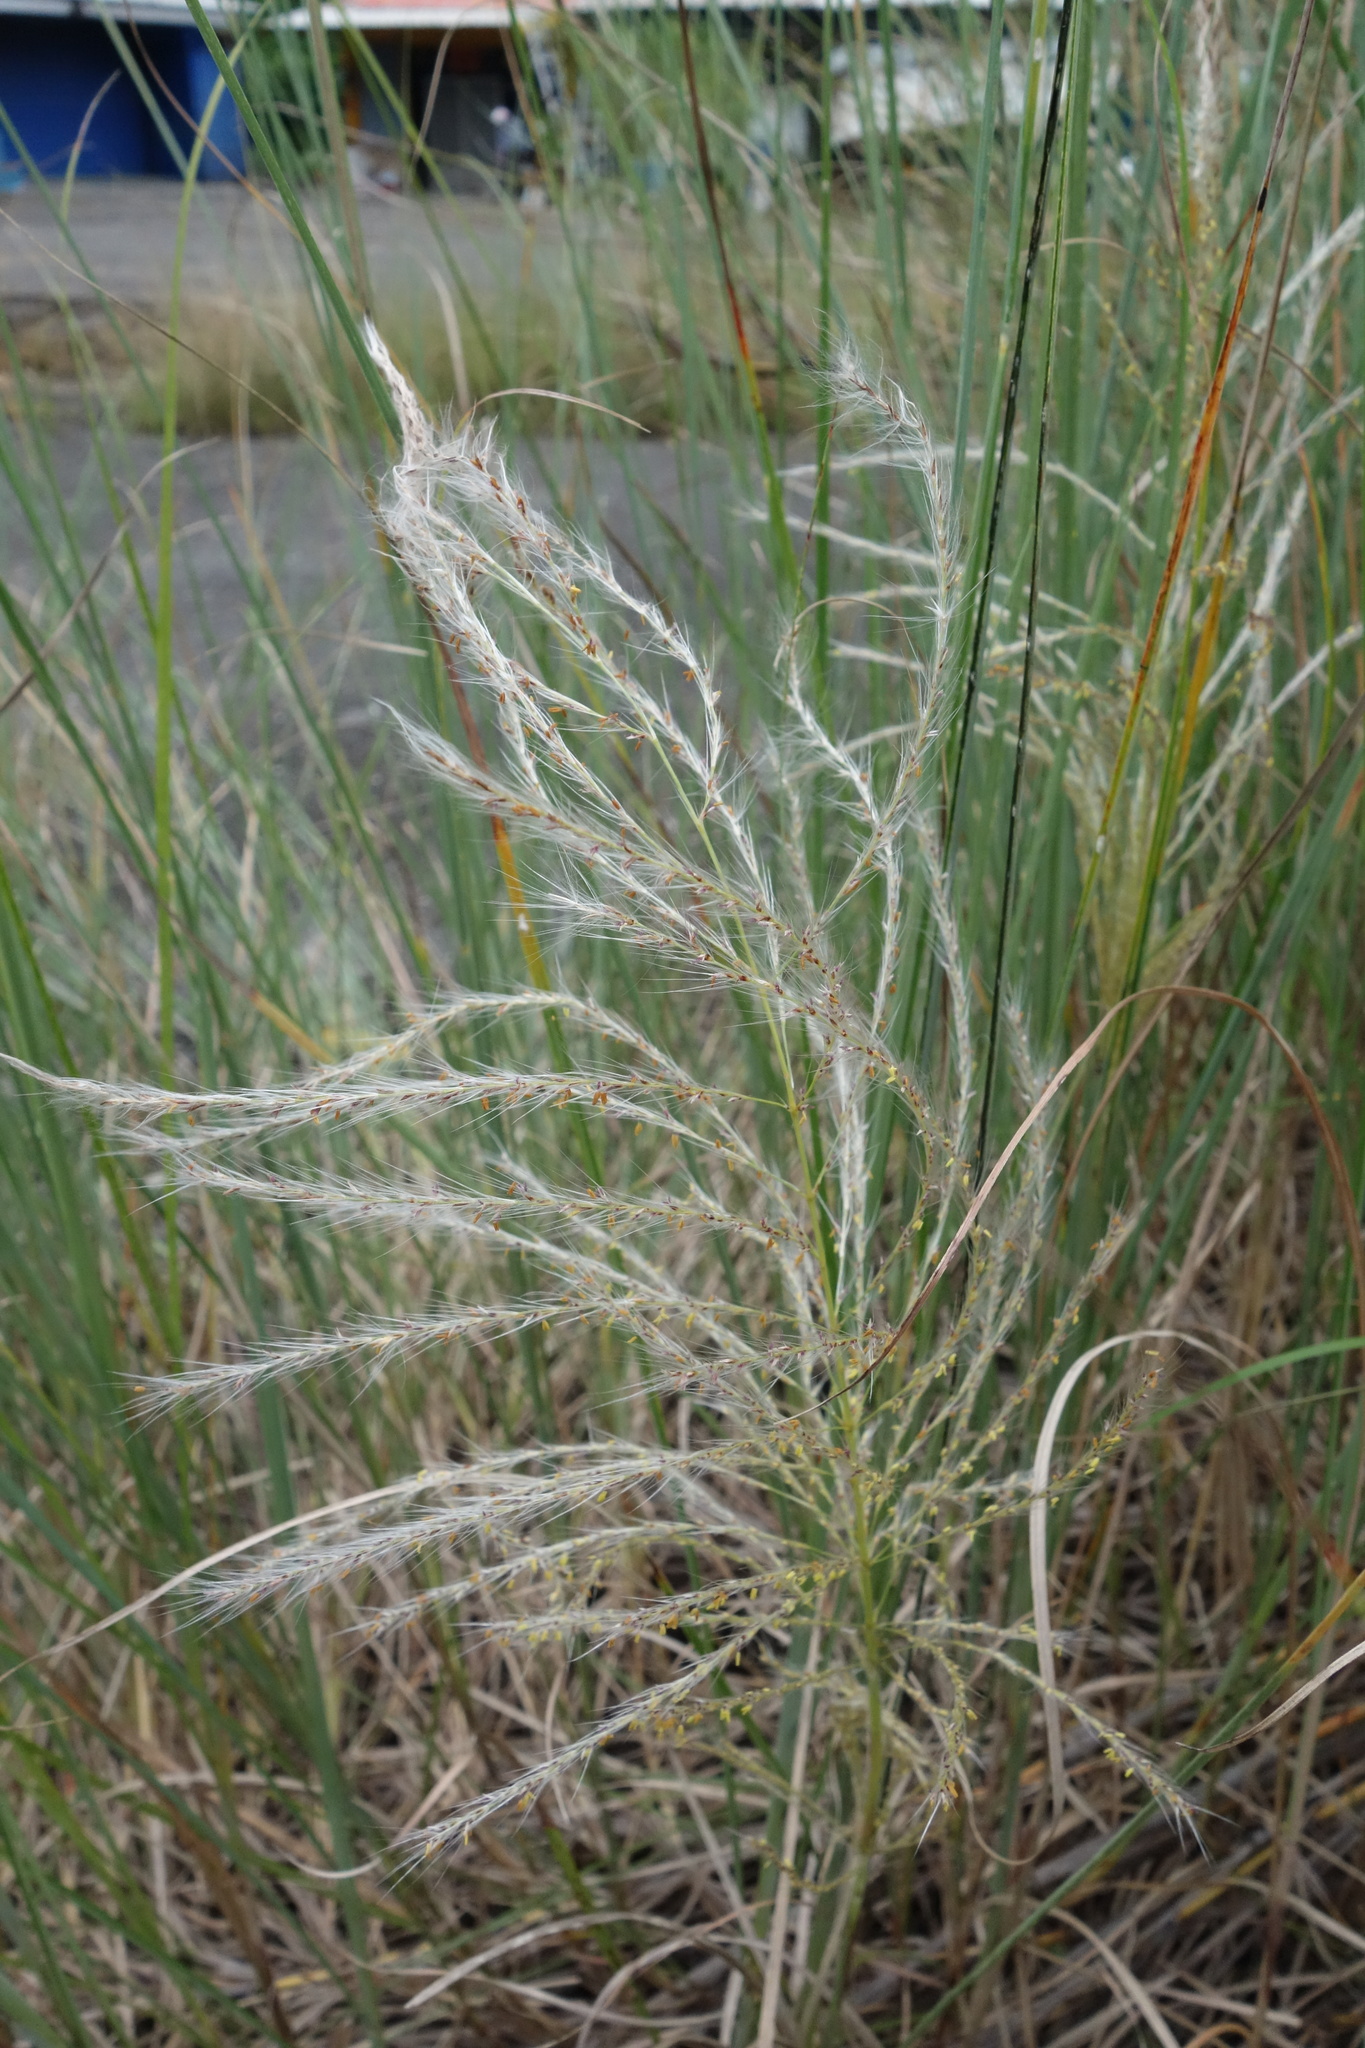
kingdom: Plantae
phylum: Tracheophyta
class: Liliopsida
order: Poales
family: Poaceae
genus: Saccharum
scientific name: Saccharum spontaneum
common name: Wild sugarcane
